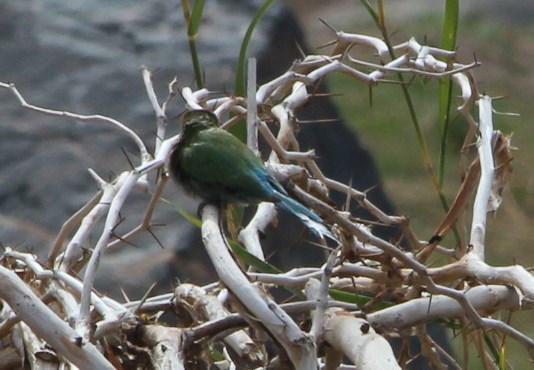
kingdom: Animalia
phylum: Chordata
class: Aves
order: Coraciiformes
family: Meropidae
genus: Merops
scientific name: Merops hirundineus
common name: Swallow-tailed bee-eater
